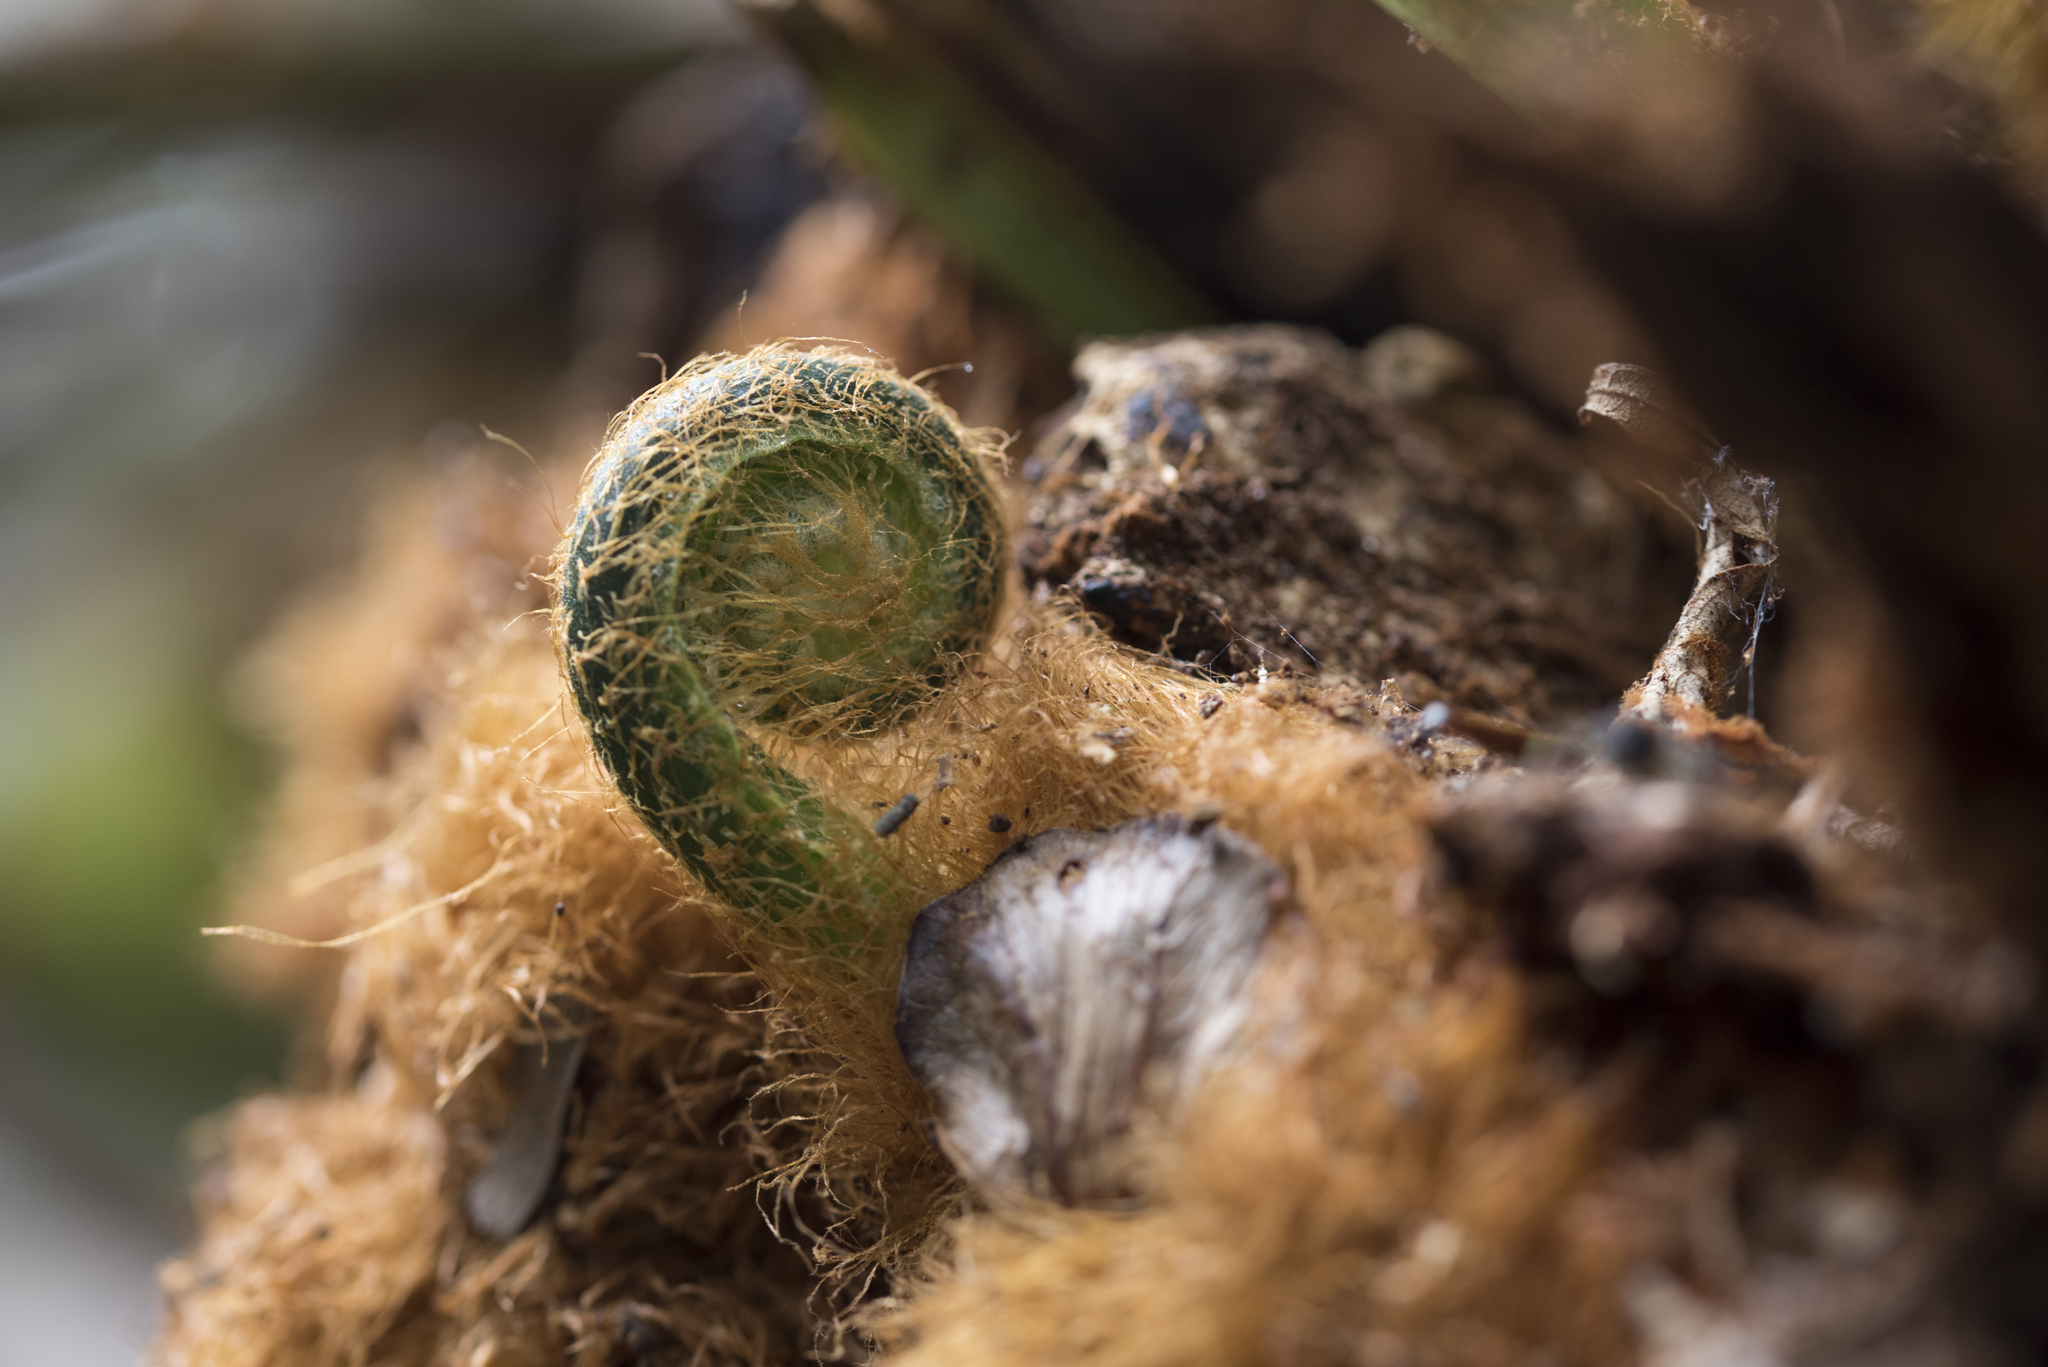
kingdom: Plantae
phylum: Tracheophyta
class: Polypodiopsida
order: Polypodiales
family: Polypodiaceae
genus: Drynaria
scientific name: Drynaria coronans
